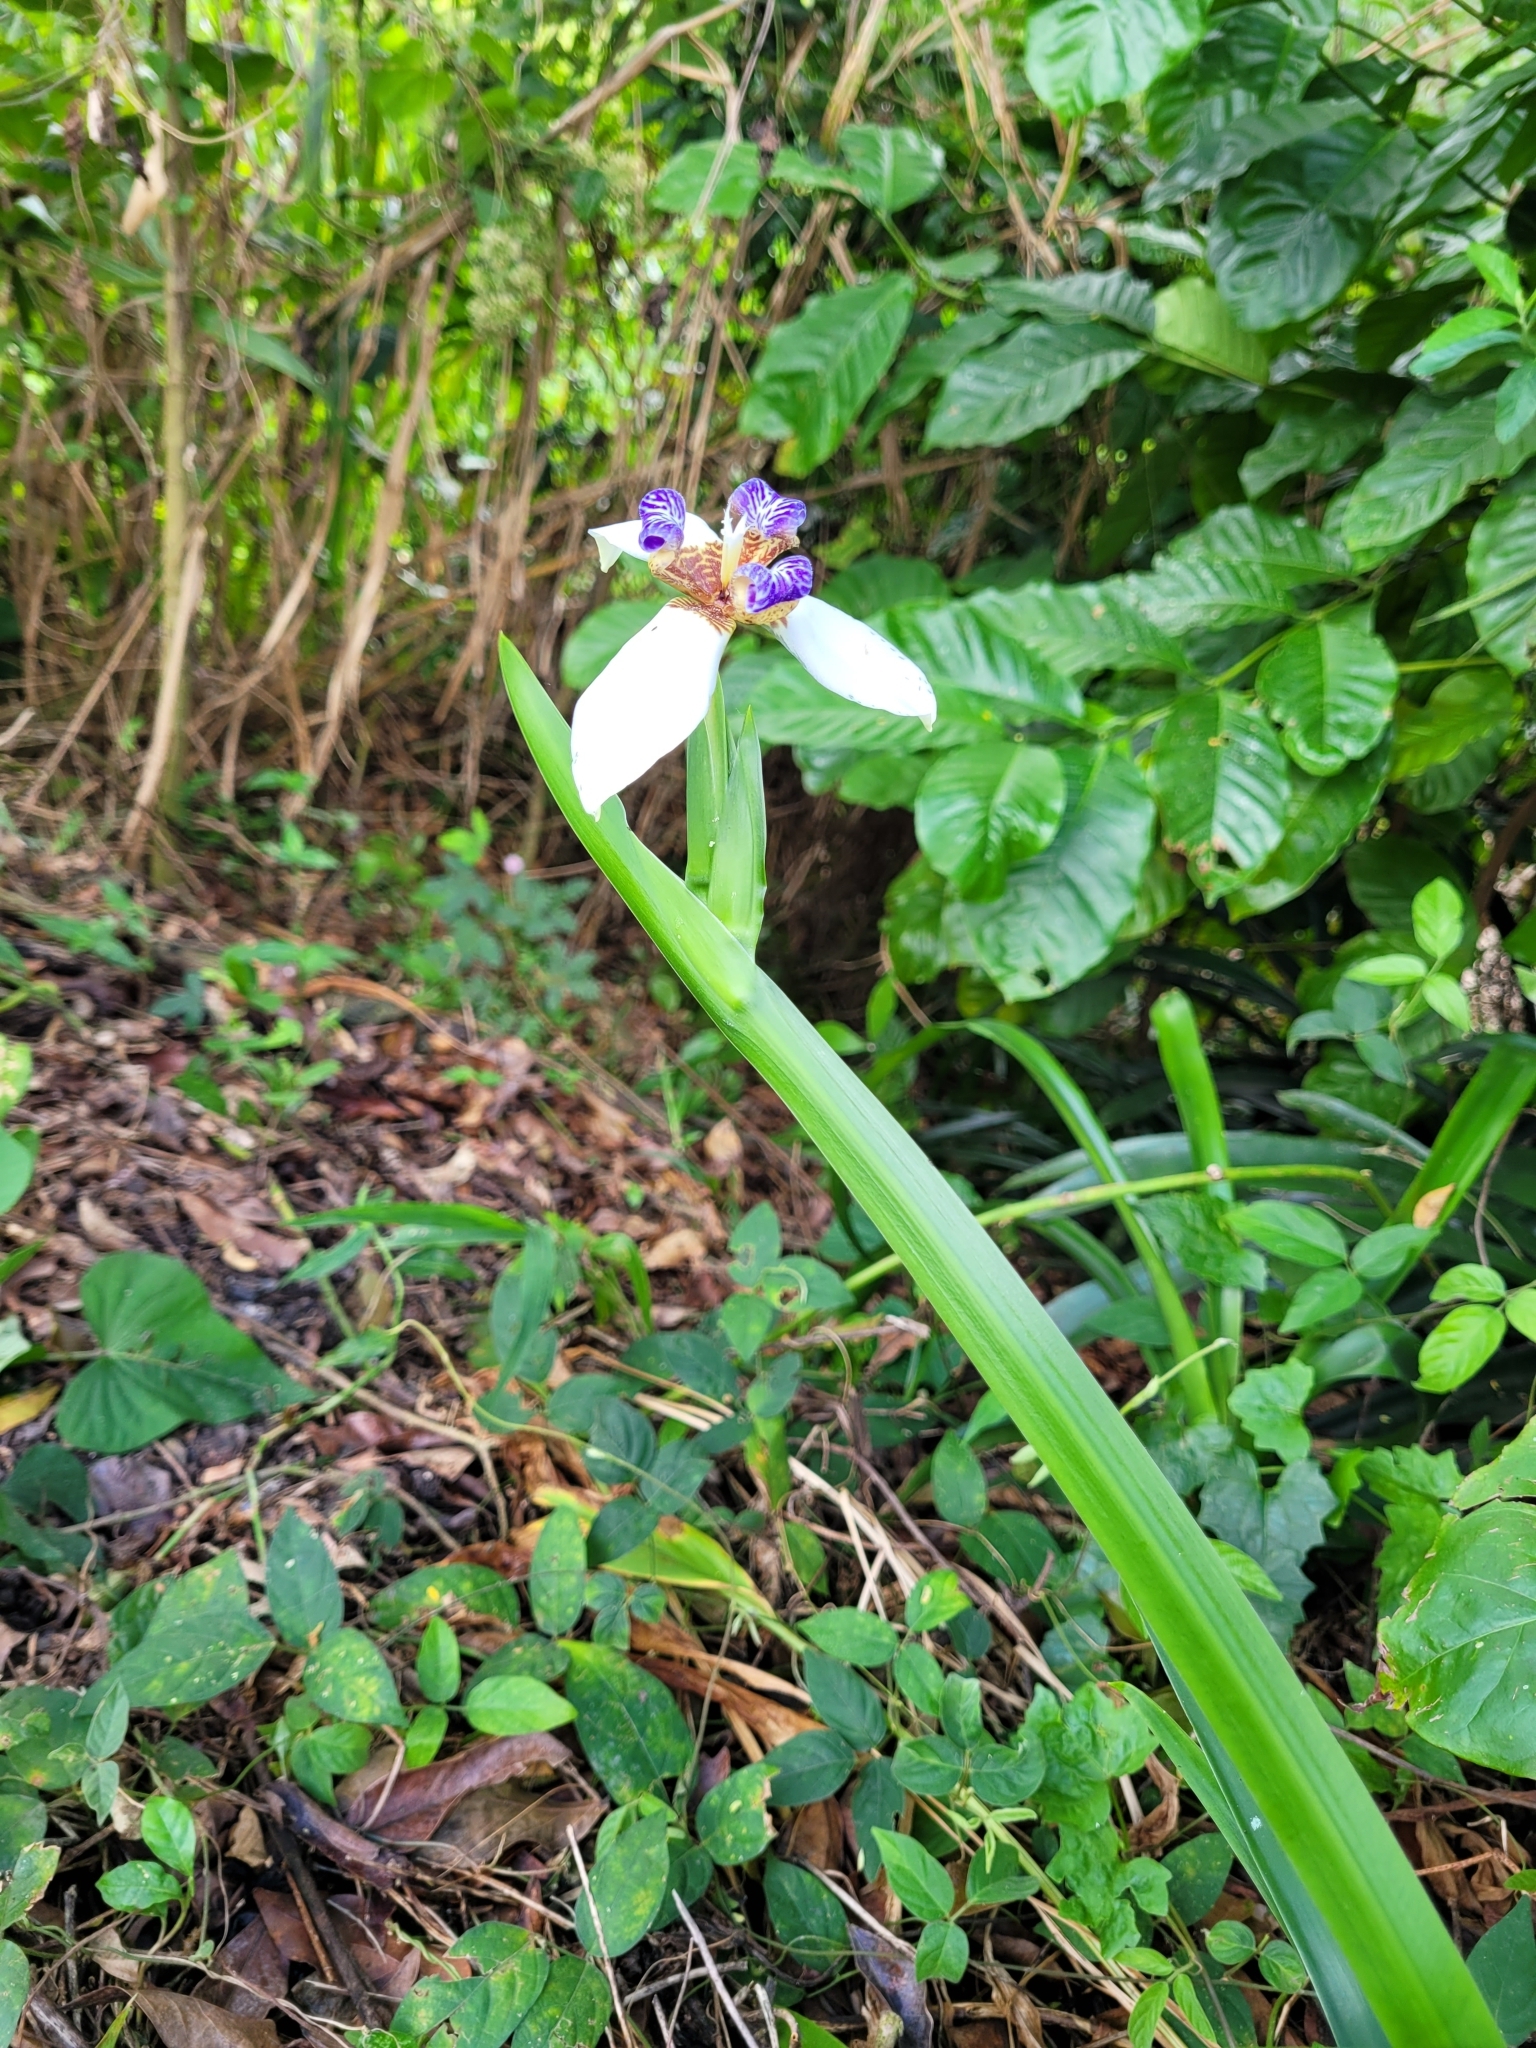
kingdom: Plantae
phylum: Tracheophyta
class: Liliopsida
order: Asparagales
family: Iridaceae
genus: Trimezia
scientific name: Trimezia gracilis
